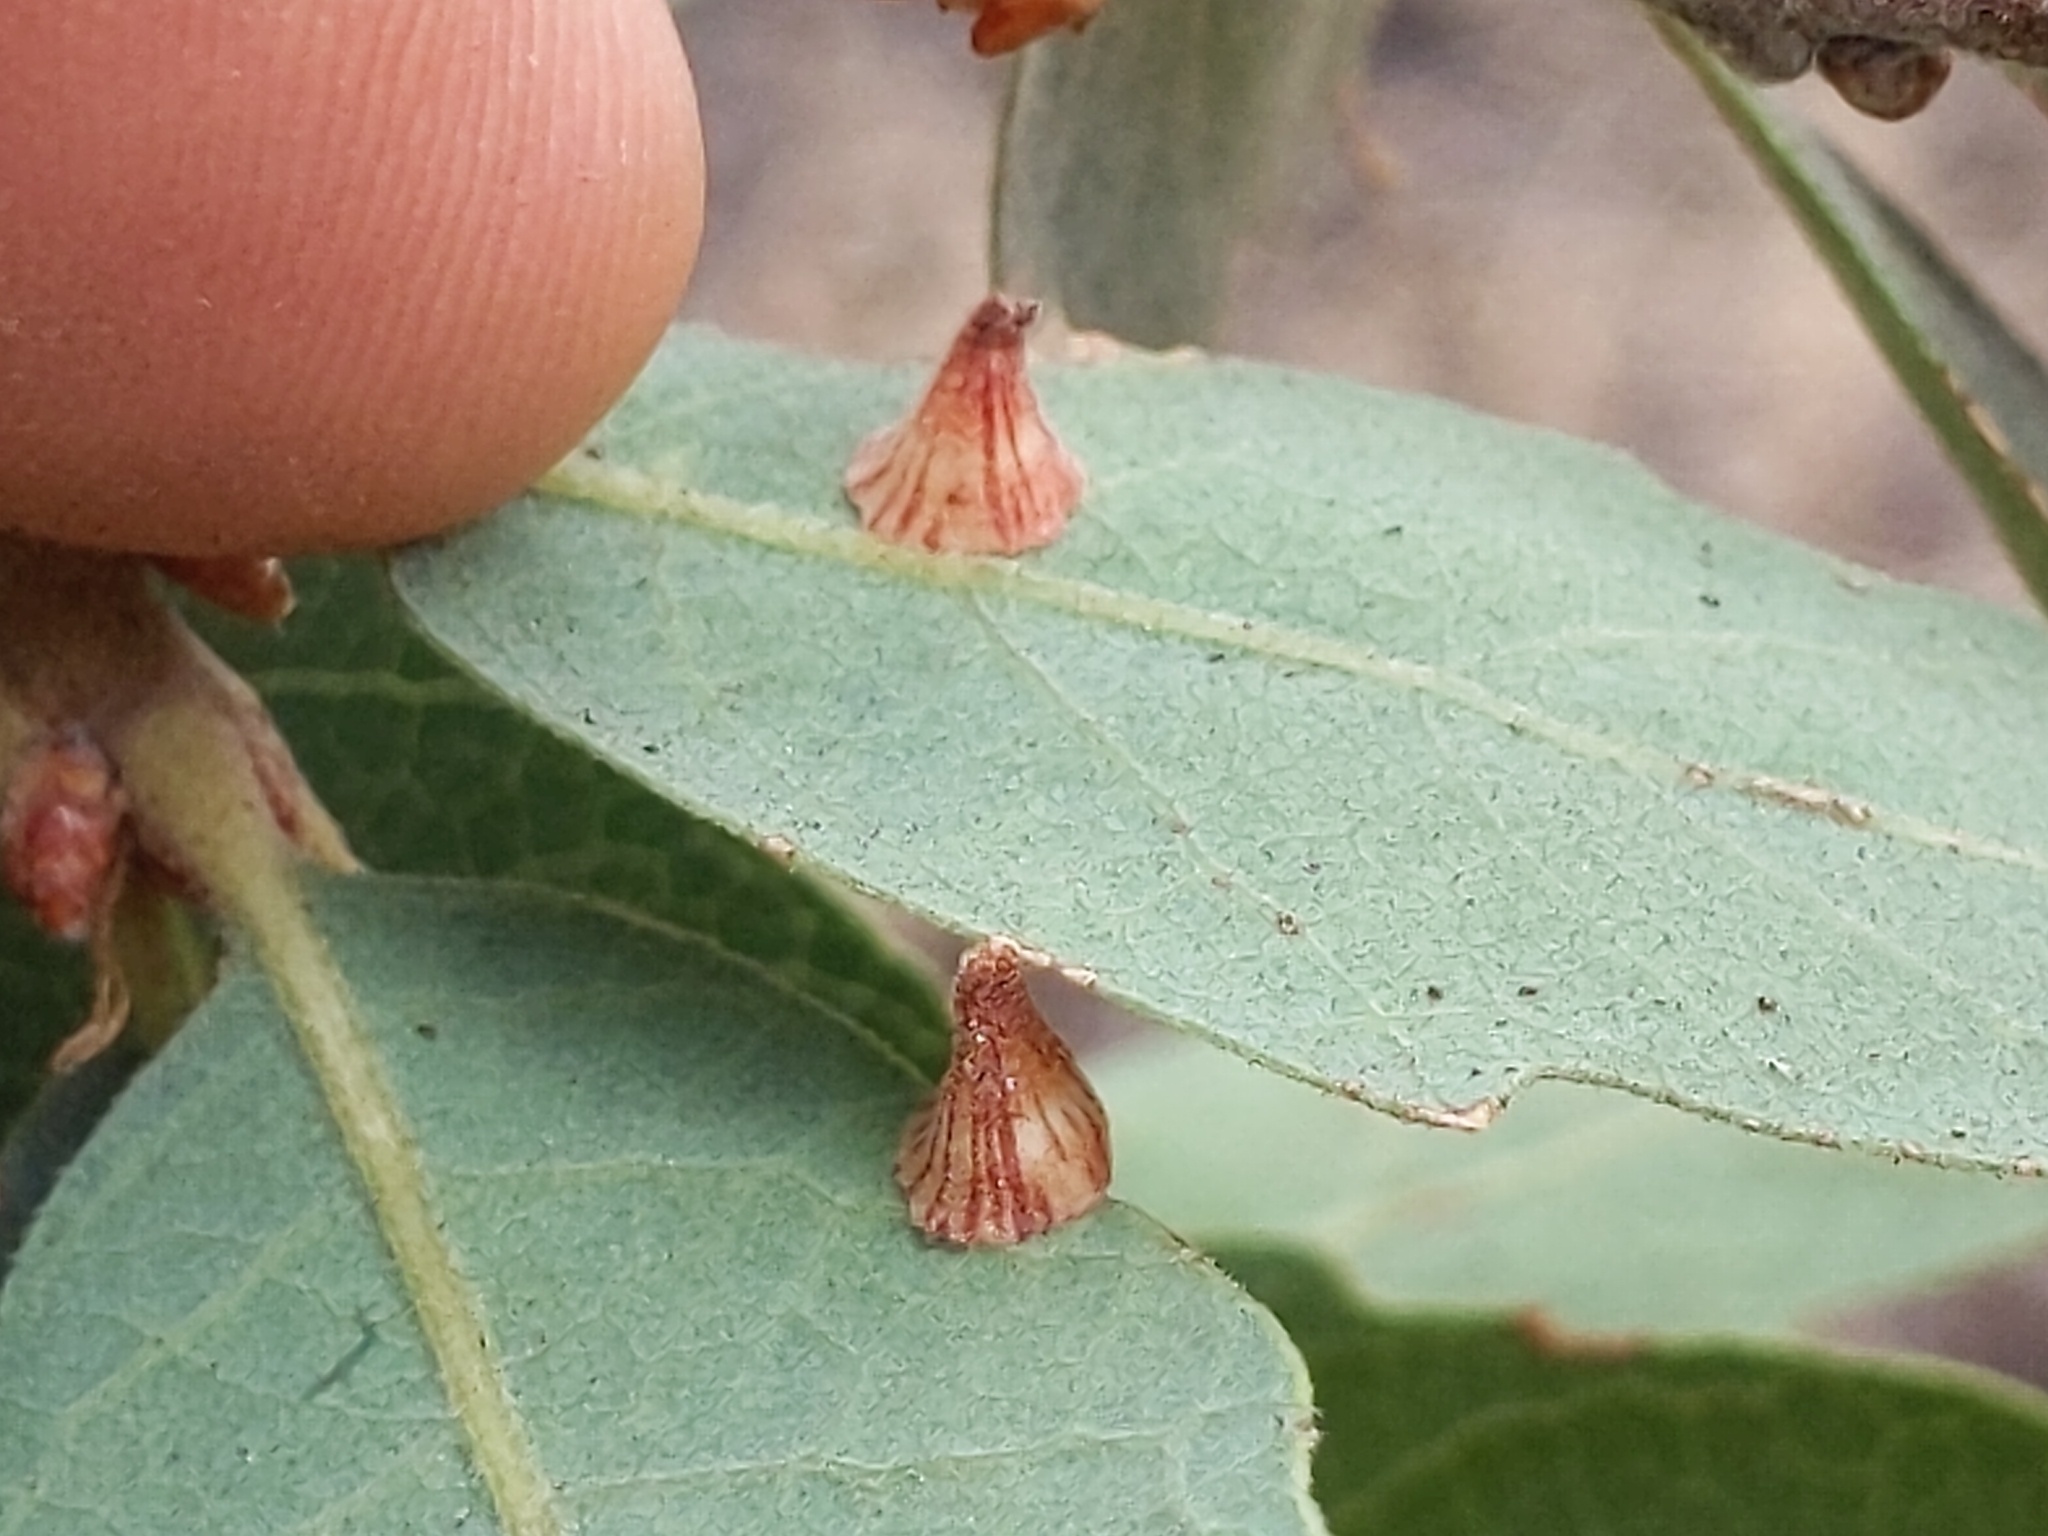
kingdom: Animalia
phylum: Arthropoda
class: Insecta
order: Hymenoptera
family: Cynipidae
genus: Andricus
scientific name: Andricus
